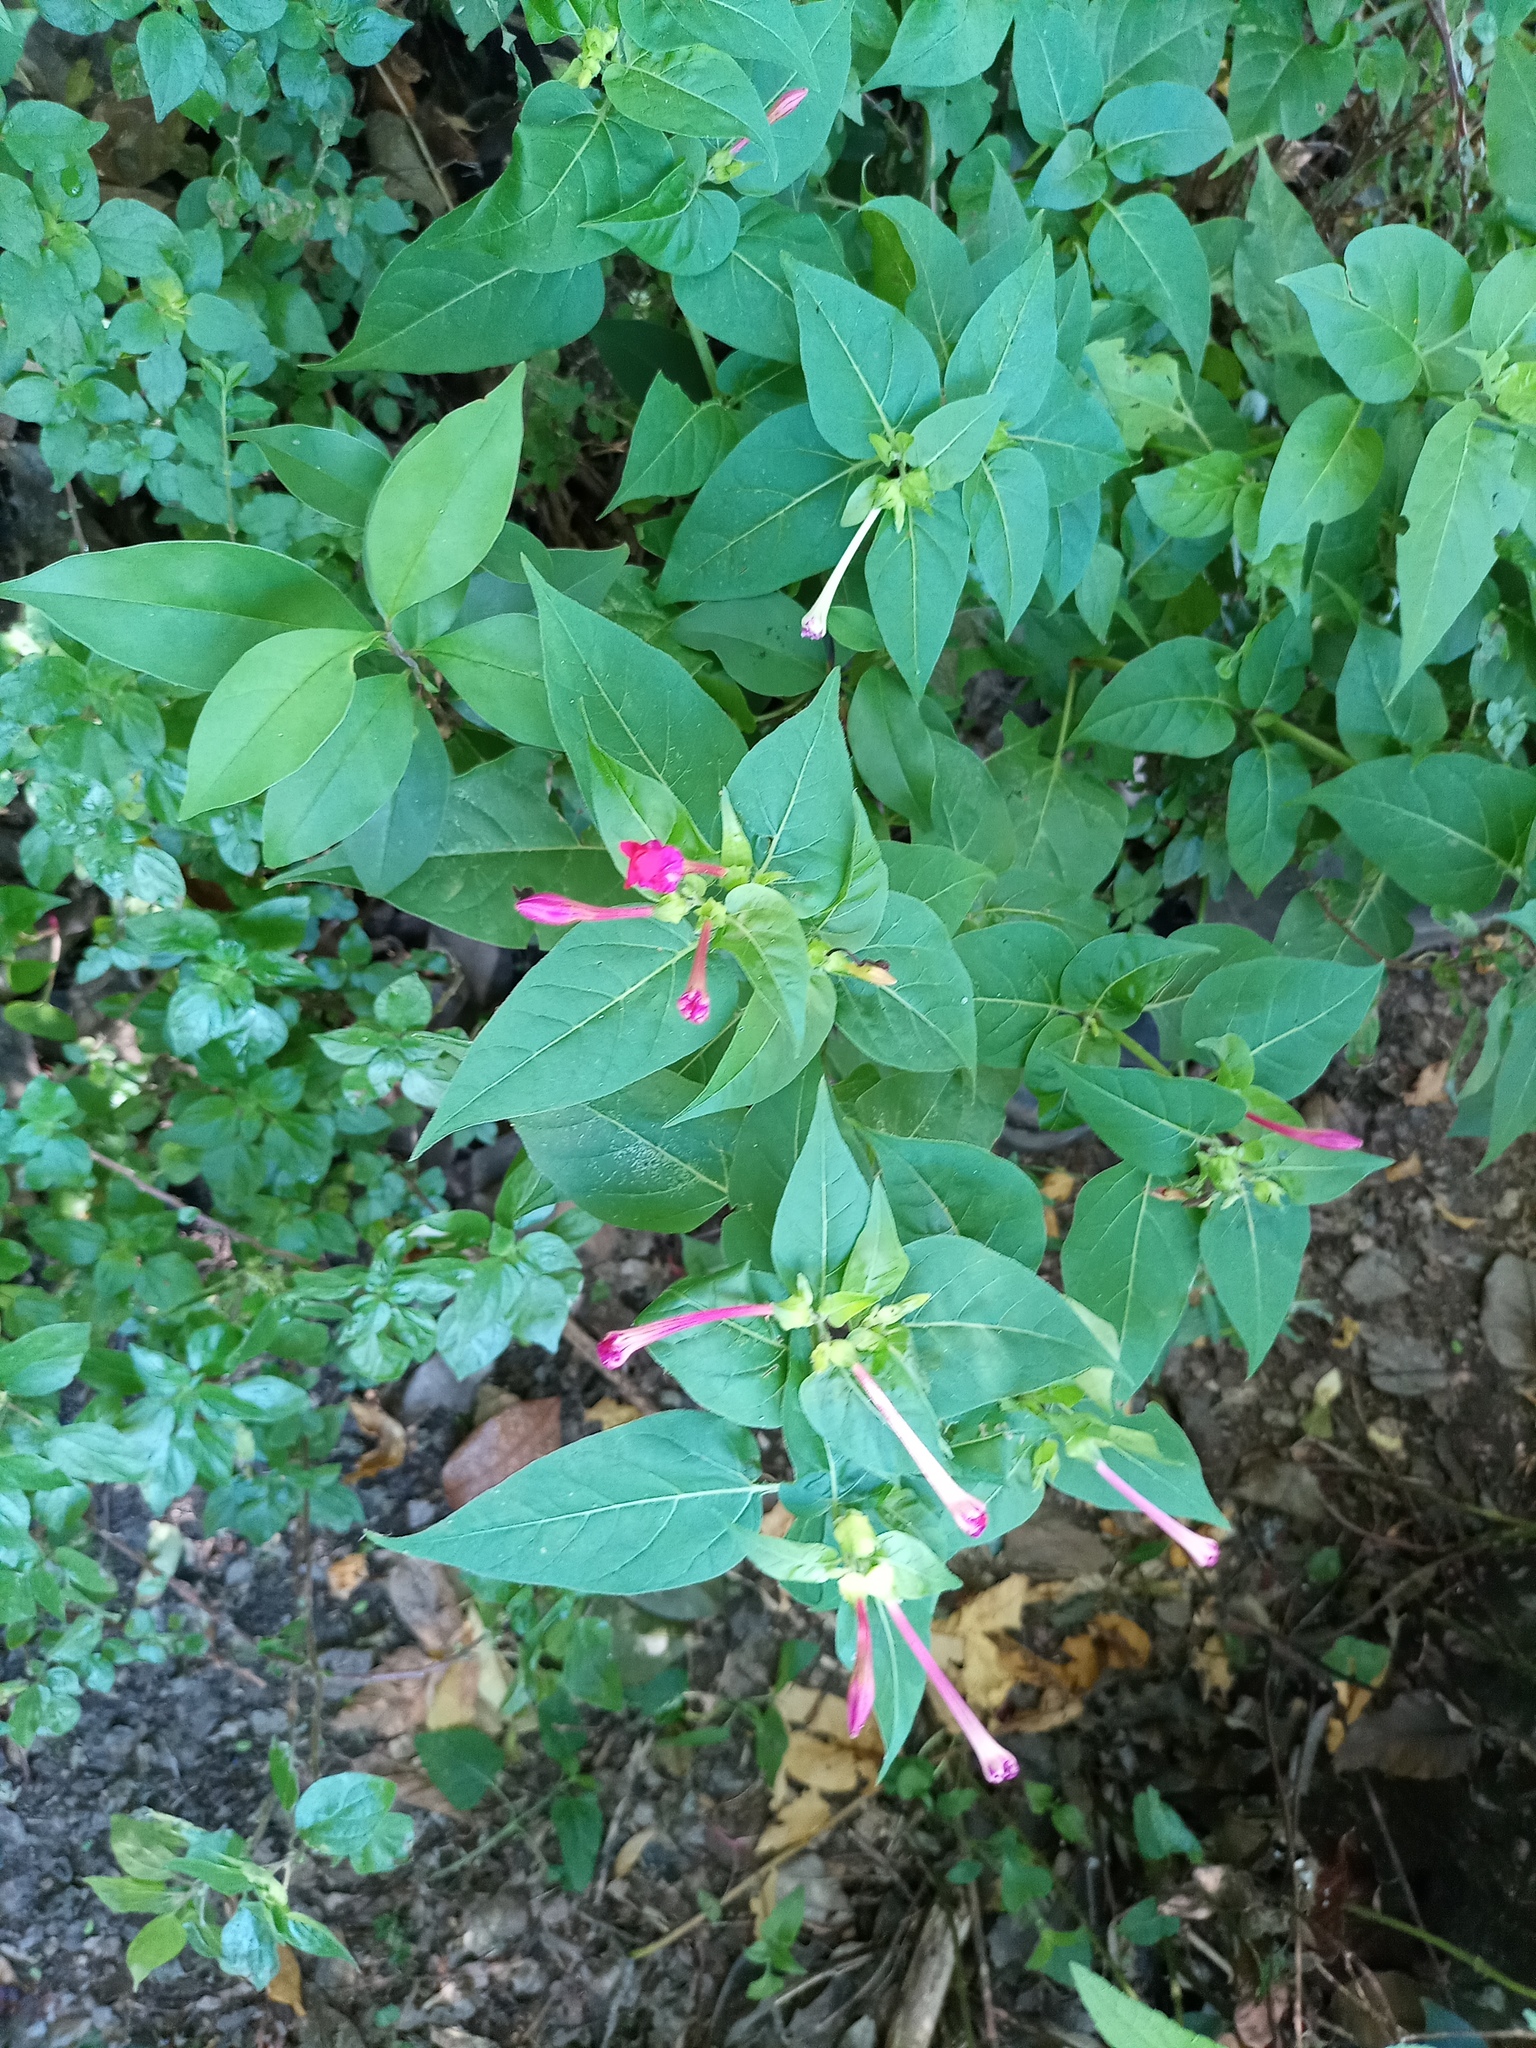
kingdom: Plantae
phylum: Tracheophyta
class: Magnoliopsida
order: Caryophyllales
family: Nyctaginaceae
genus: Mirabilis
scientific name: Mirabilis jalapa
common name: Marvel-of-peru
